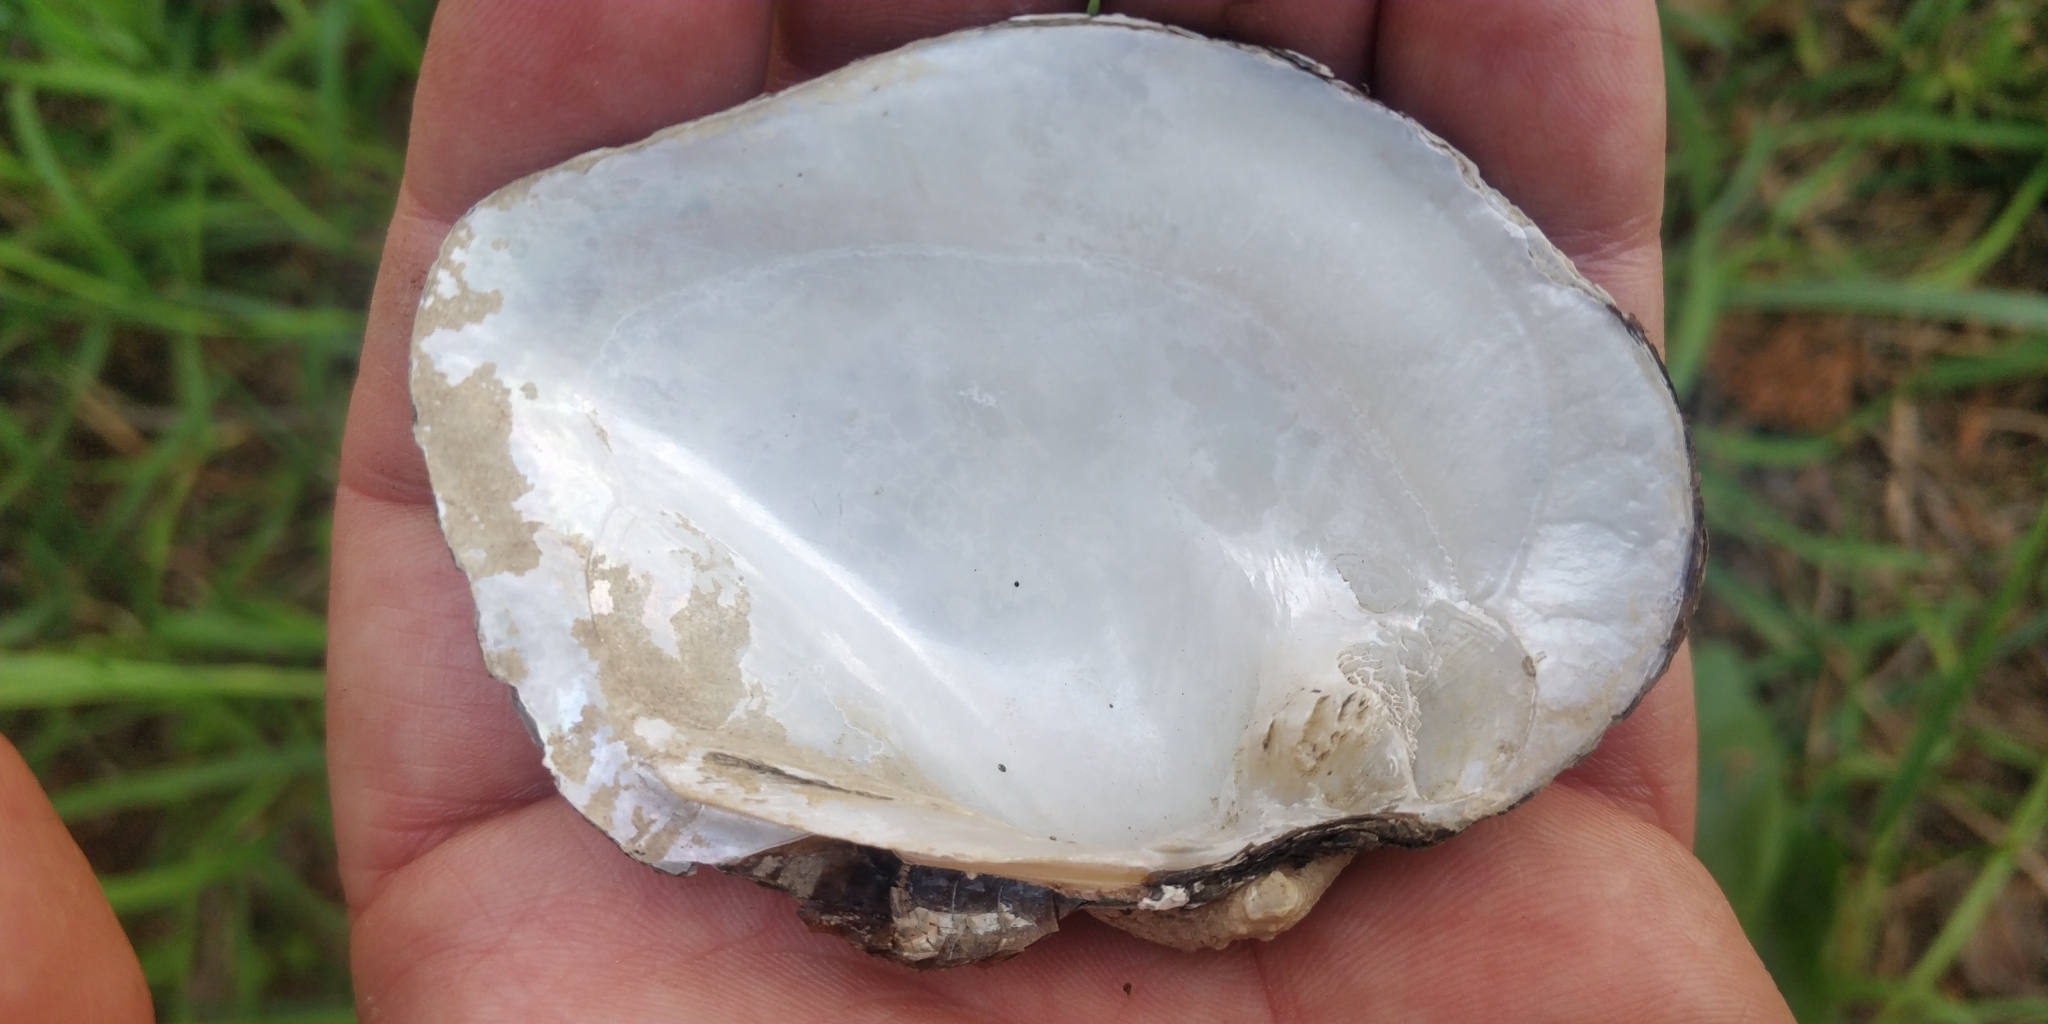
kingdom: Animalia
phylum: Mollusca
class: Bivalvia
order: Unionida
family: Unionidae
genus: Quadrula
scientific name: Quadrula quadrula
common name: Mapleleaf
